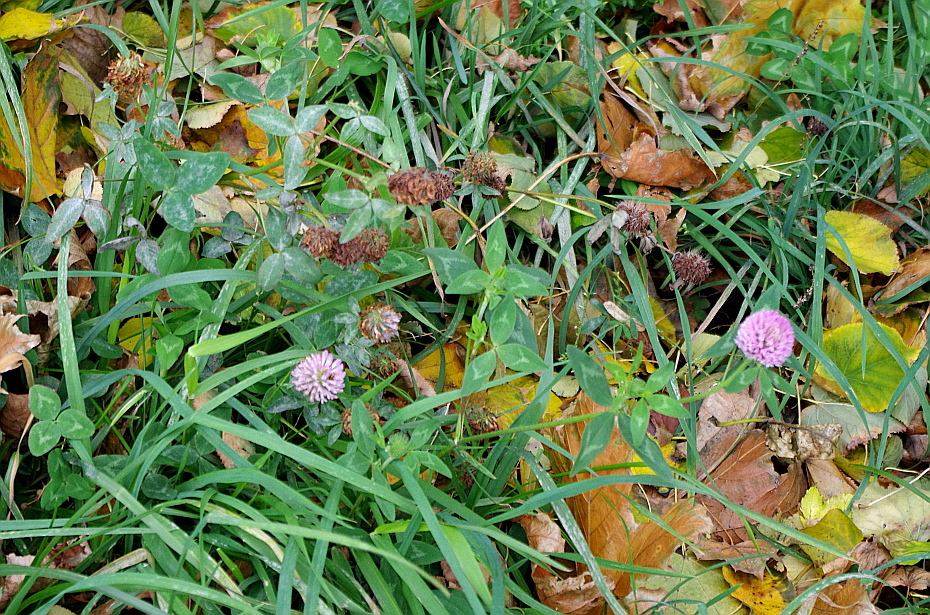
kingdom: Plantae
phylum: Tracheophyta
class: Magnoliopsida
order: Fabales
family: Fabaceae
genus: Trifolium
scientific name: Trifolium pratense
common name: Red clover
